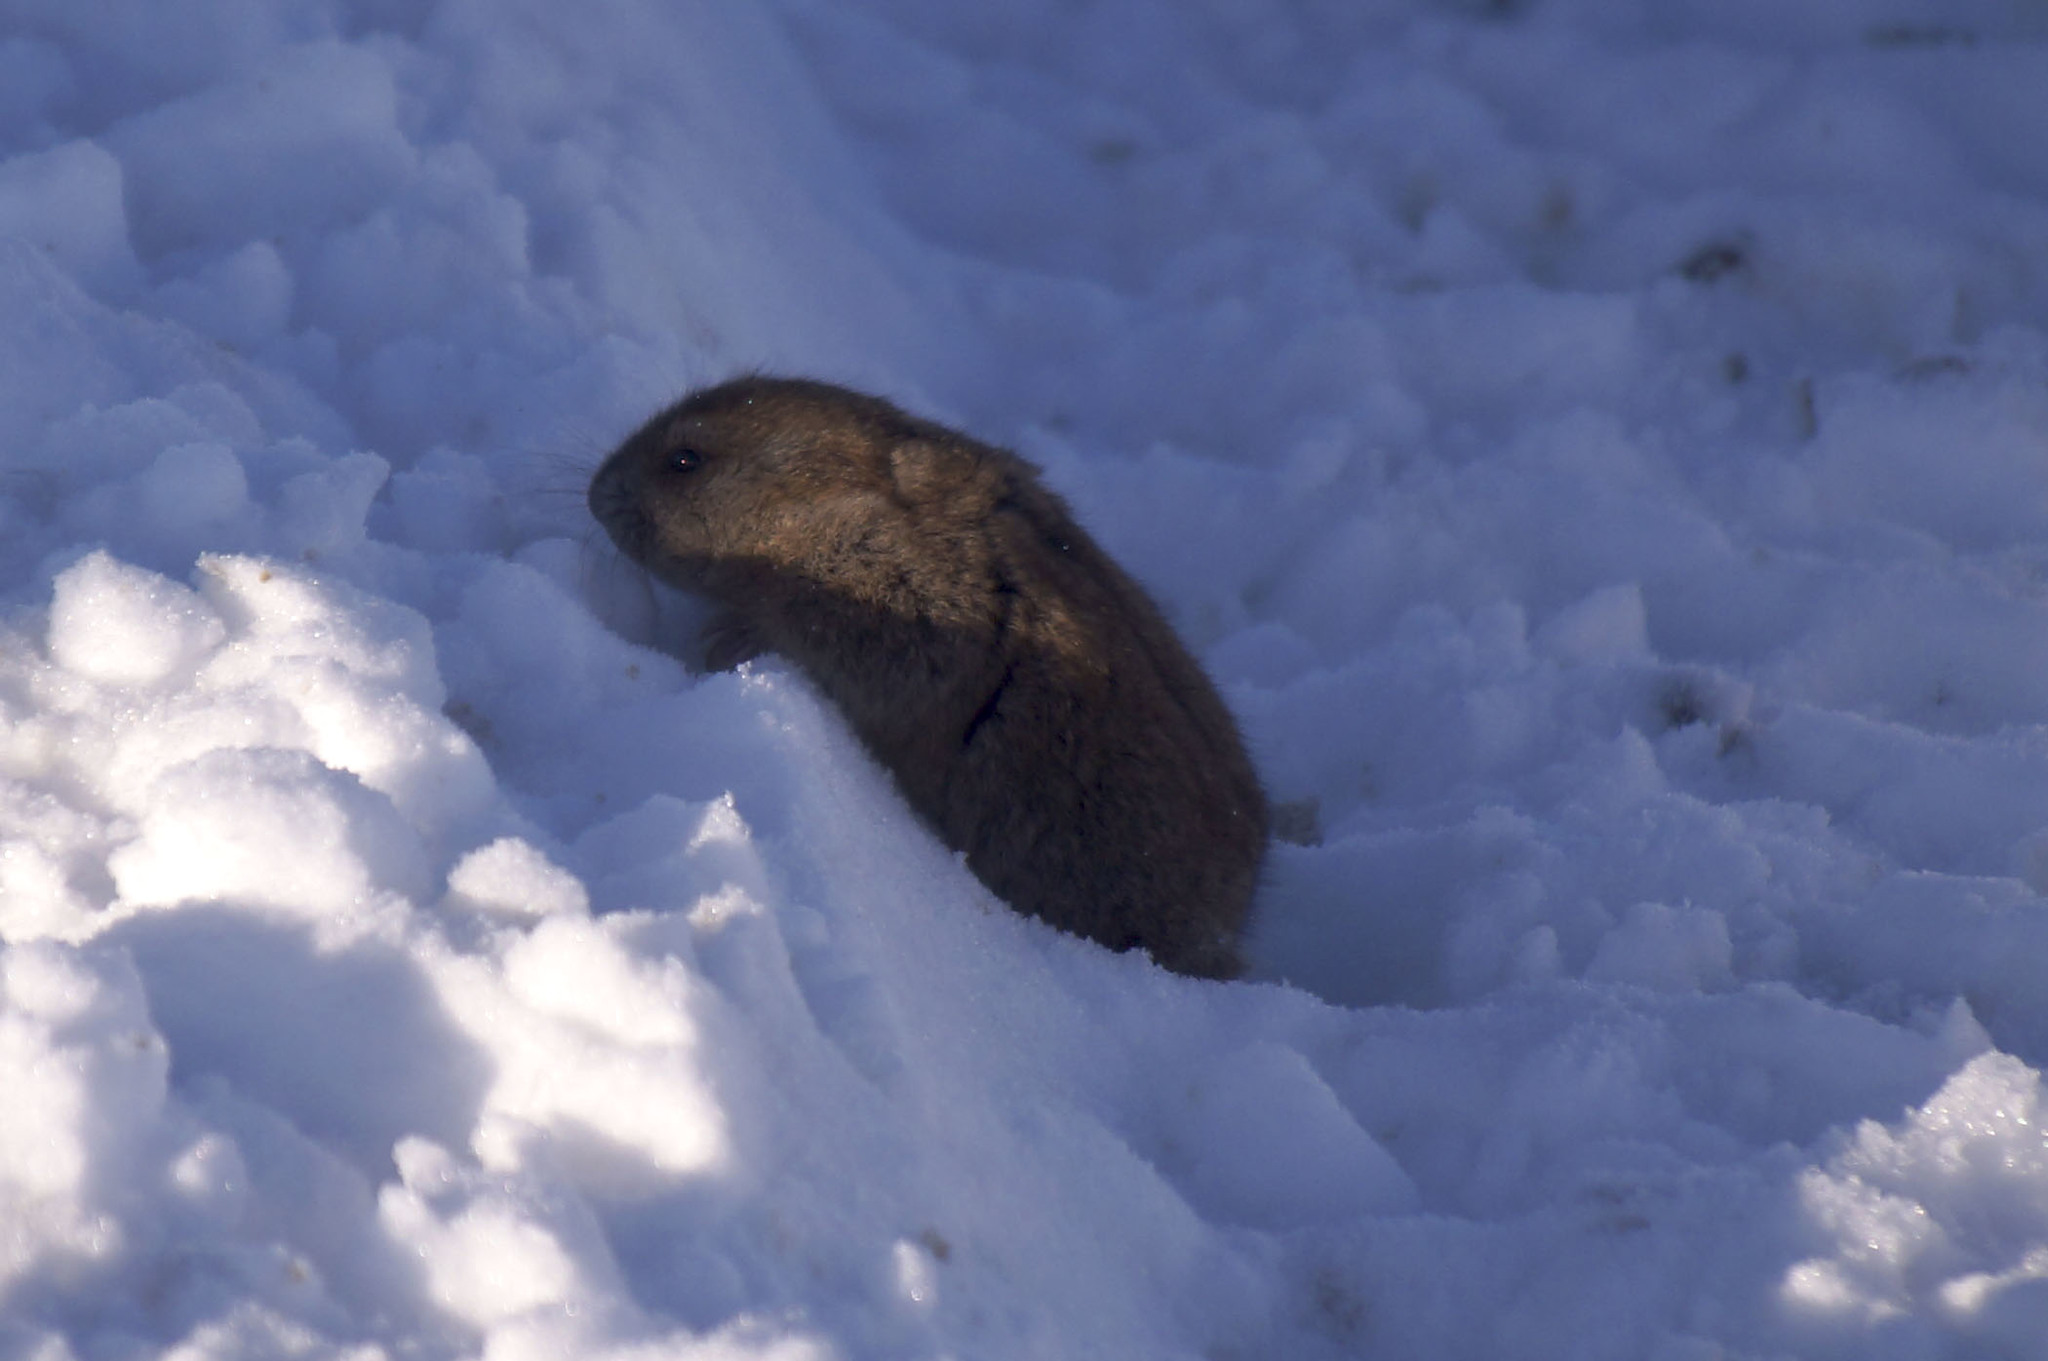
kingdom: Animalia
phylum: Chordata
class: Mammalia
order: Rodentia
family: Cricetidae
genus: Lemmus
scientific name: Lemmus sibiricus
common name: Siberian brown lemming
